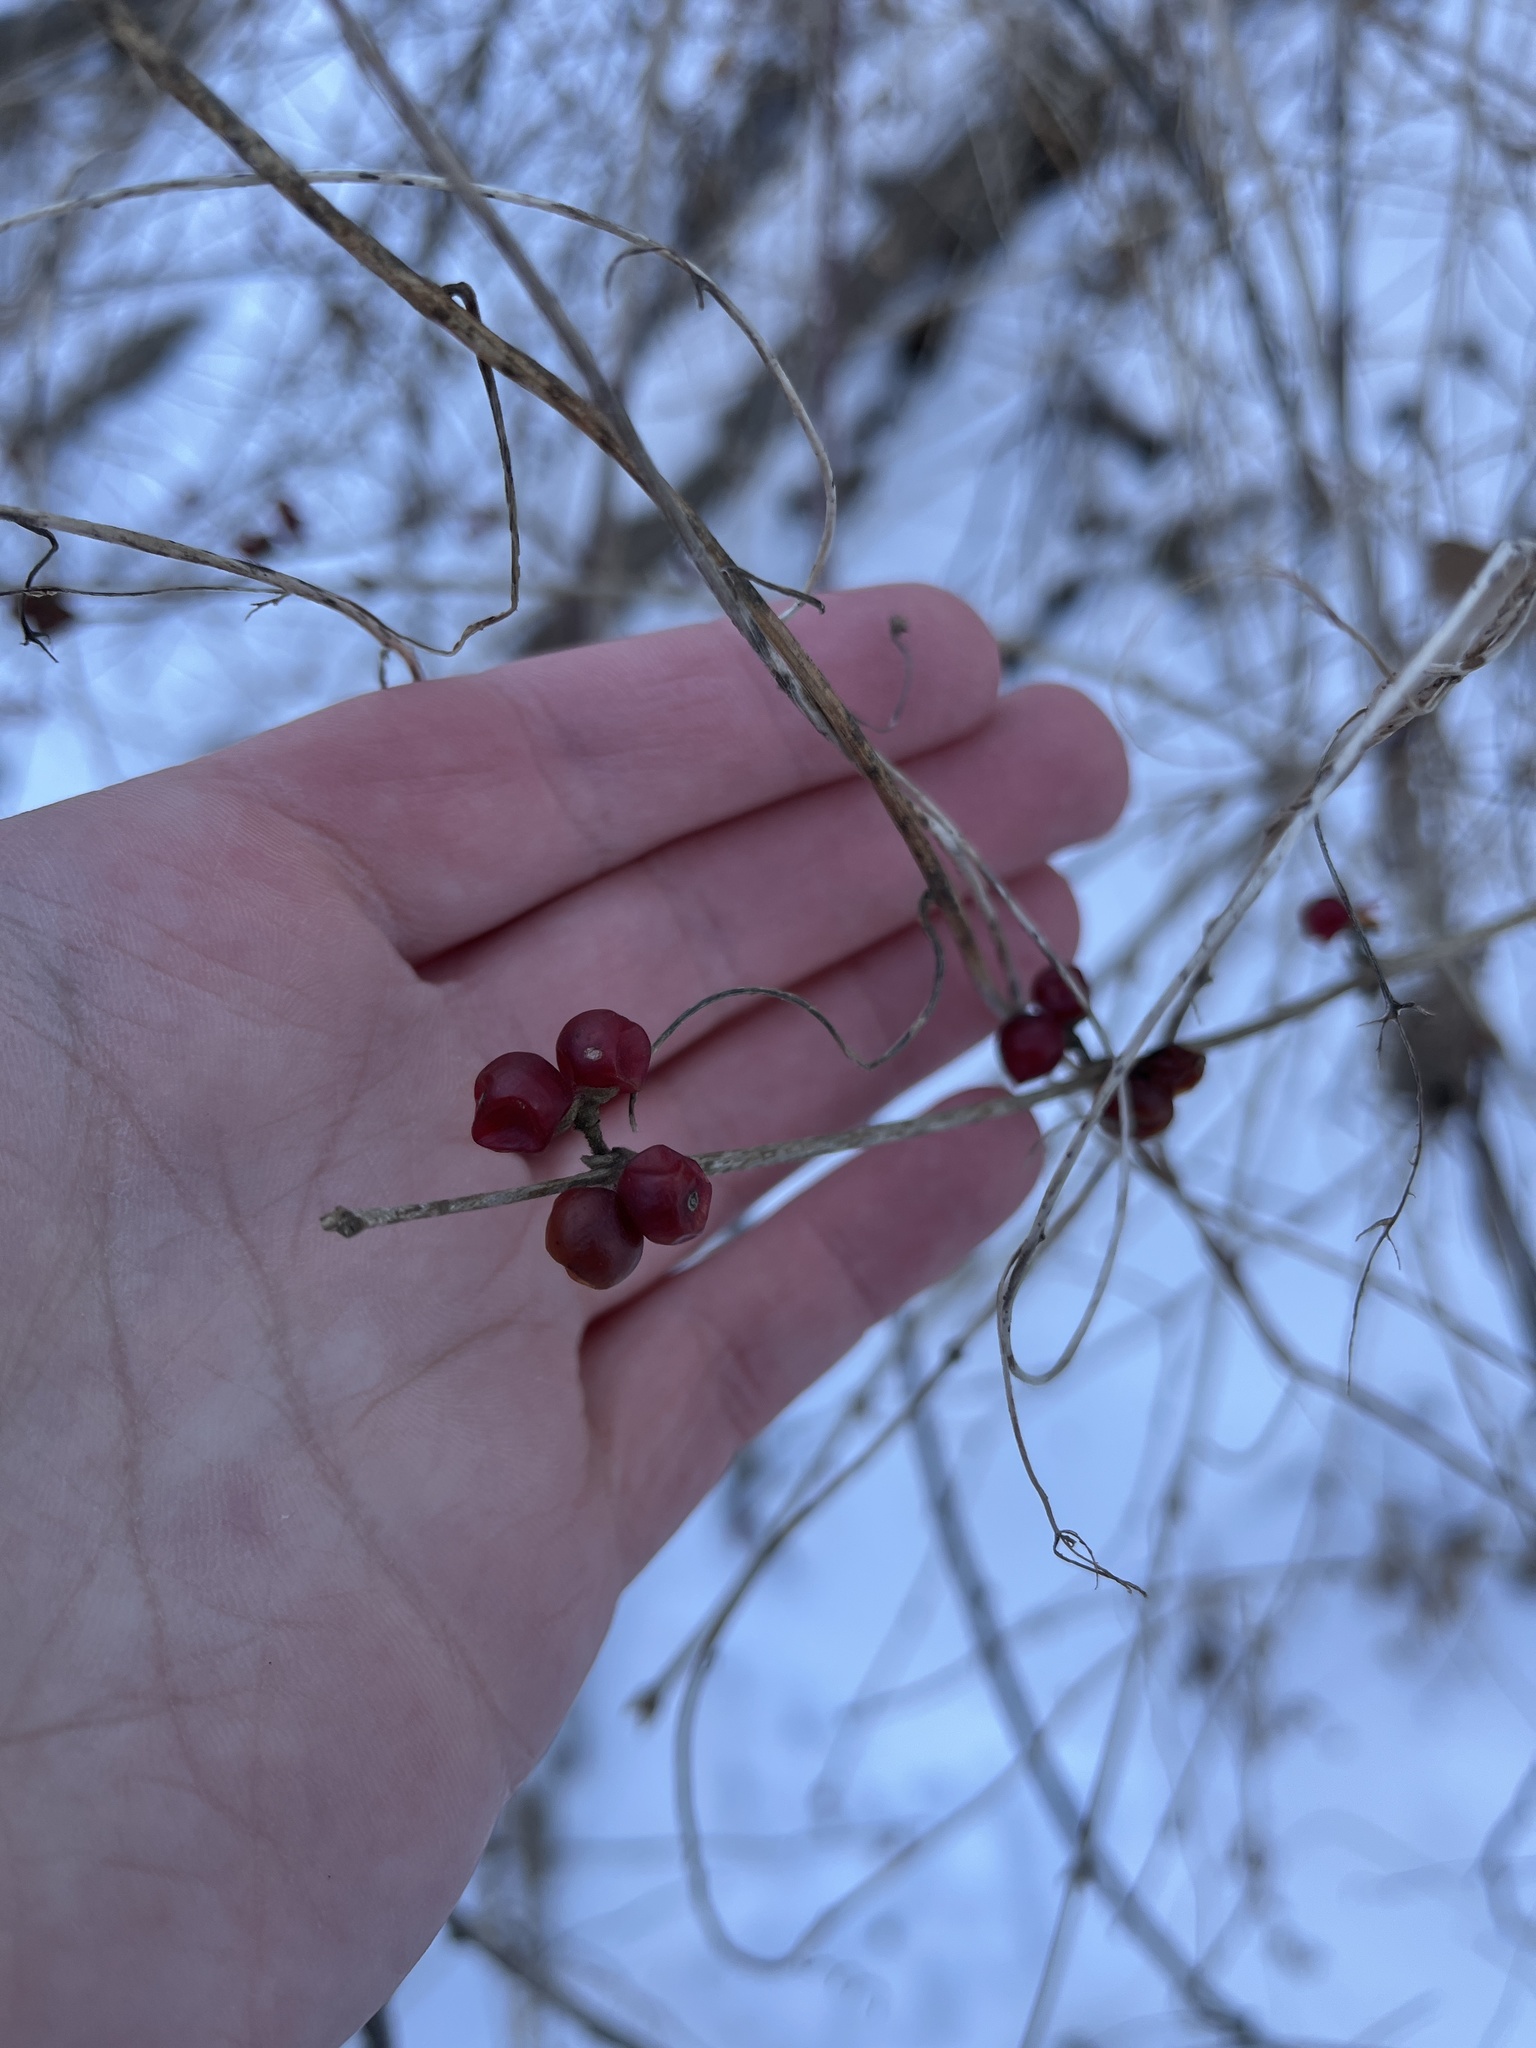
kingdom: Plantae
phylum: Tracheophyta
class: Magnoliopsida
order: Dipsacales
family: Caprifoliaceae
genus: Lonicera
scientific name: Lonicera maackii
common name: Amur honeysuckle
